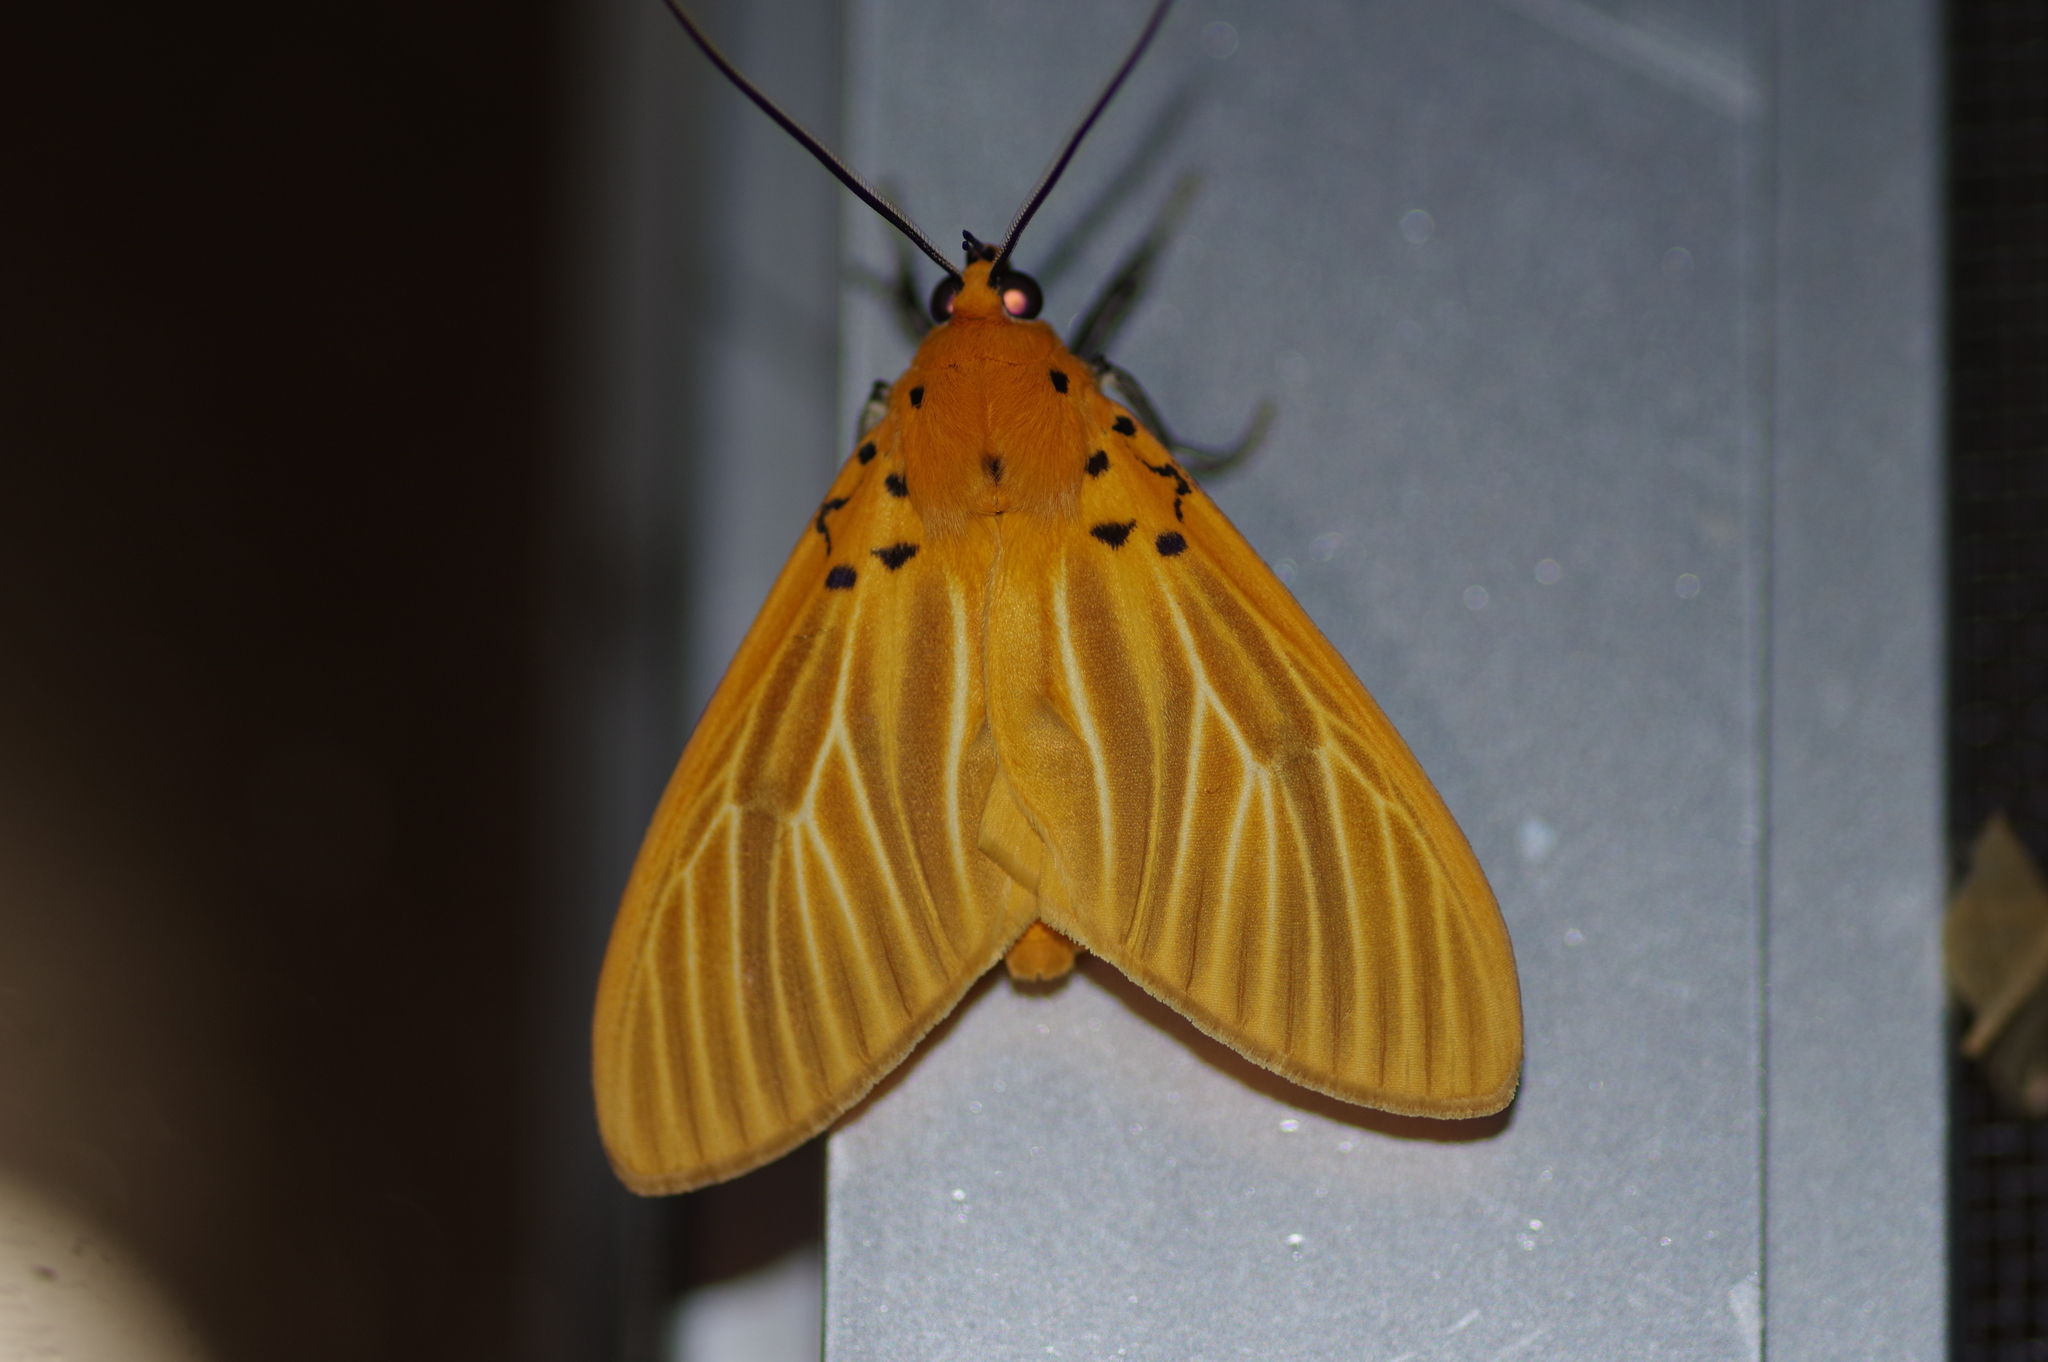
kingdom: Animalia
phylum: Arthropoda
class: Insecta
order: Lepidoptera
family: Erebidae
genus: Asota
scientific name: Asota egens
